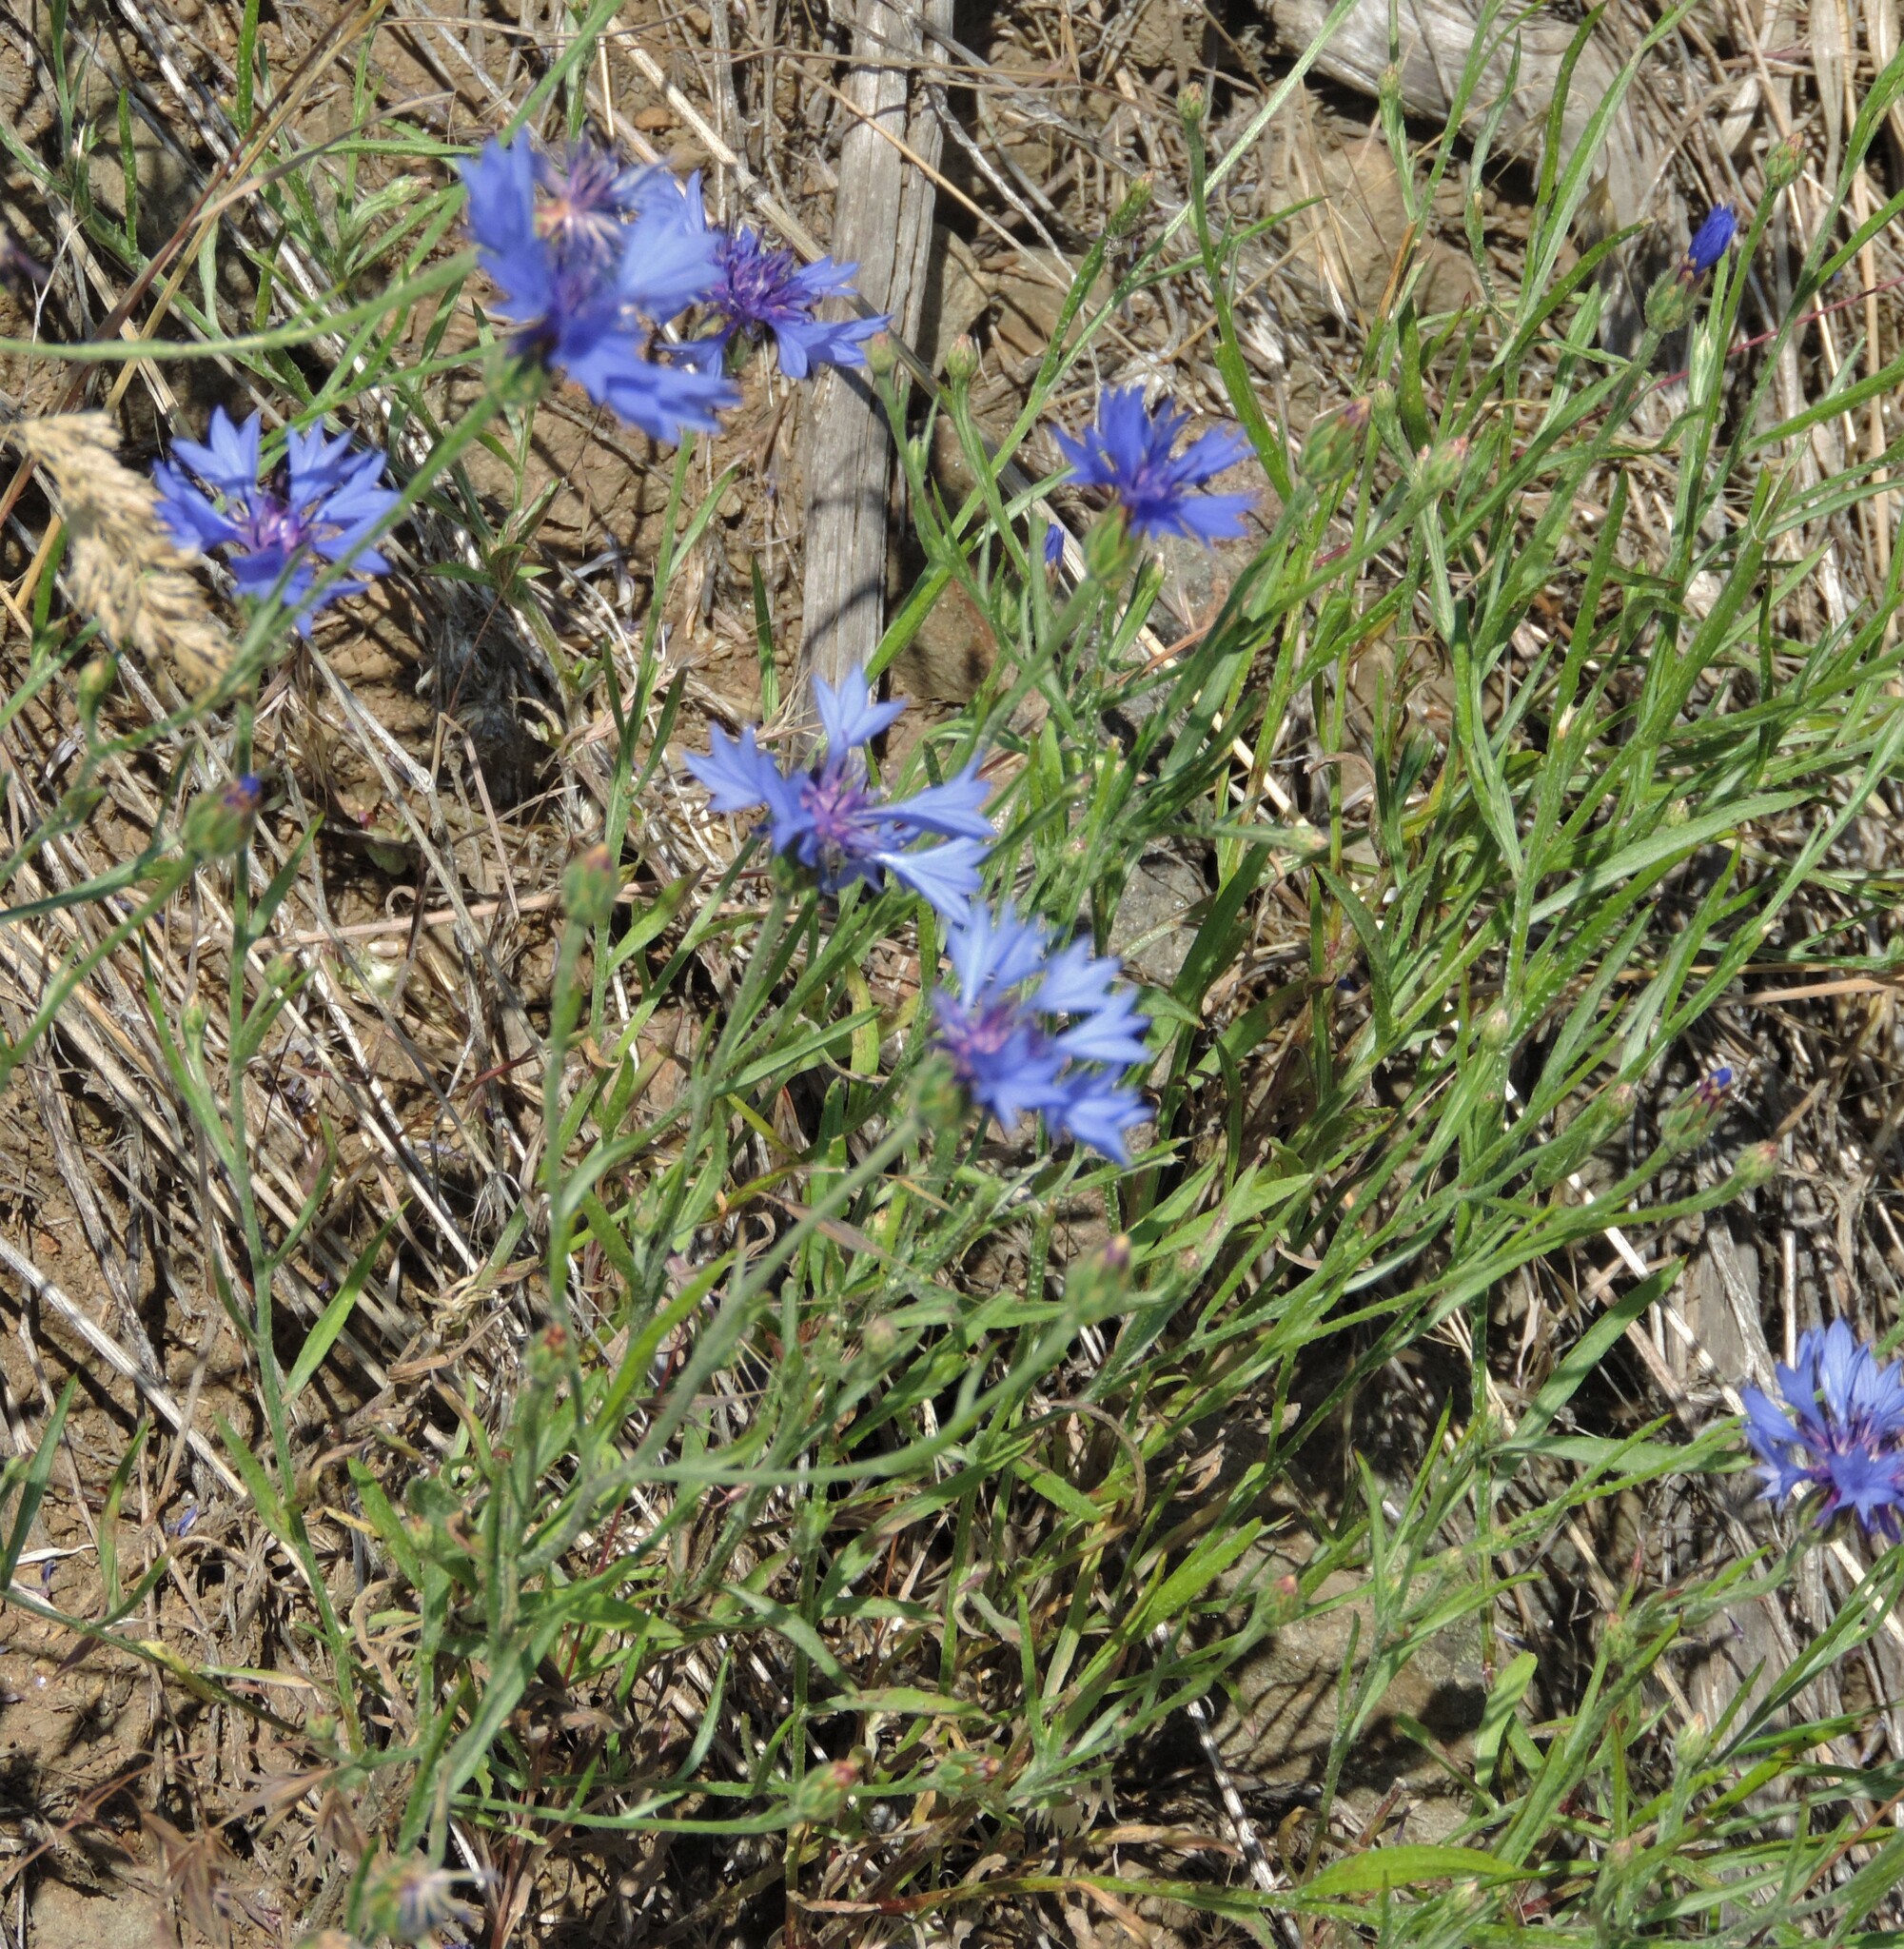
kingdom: Plantae
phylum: Tracheophyta
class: Magnoliopsida
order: Asterales
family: Asteraceae
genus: Centaurea
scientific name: Centaurea cyanus
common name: Cornflower
